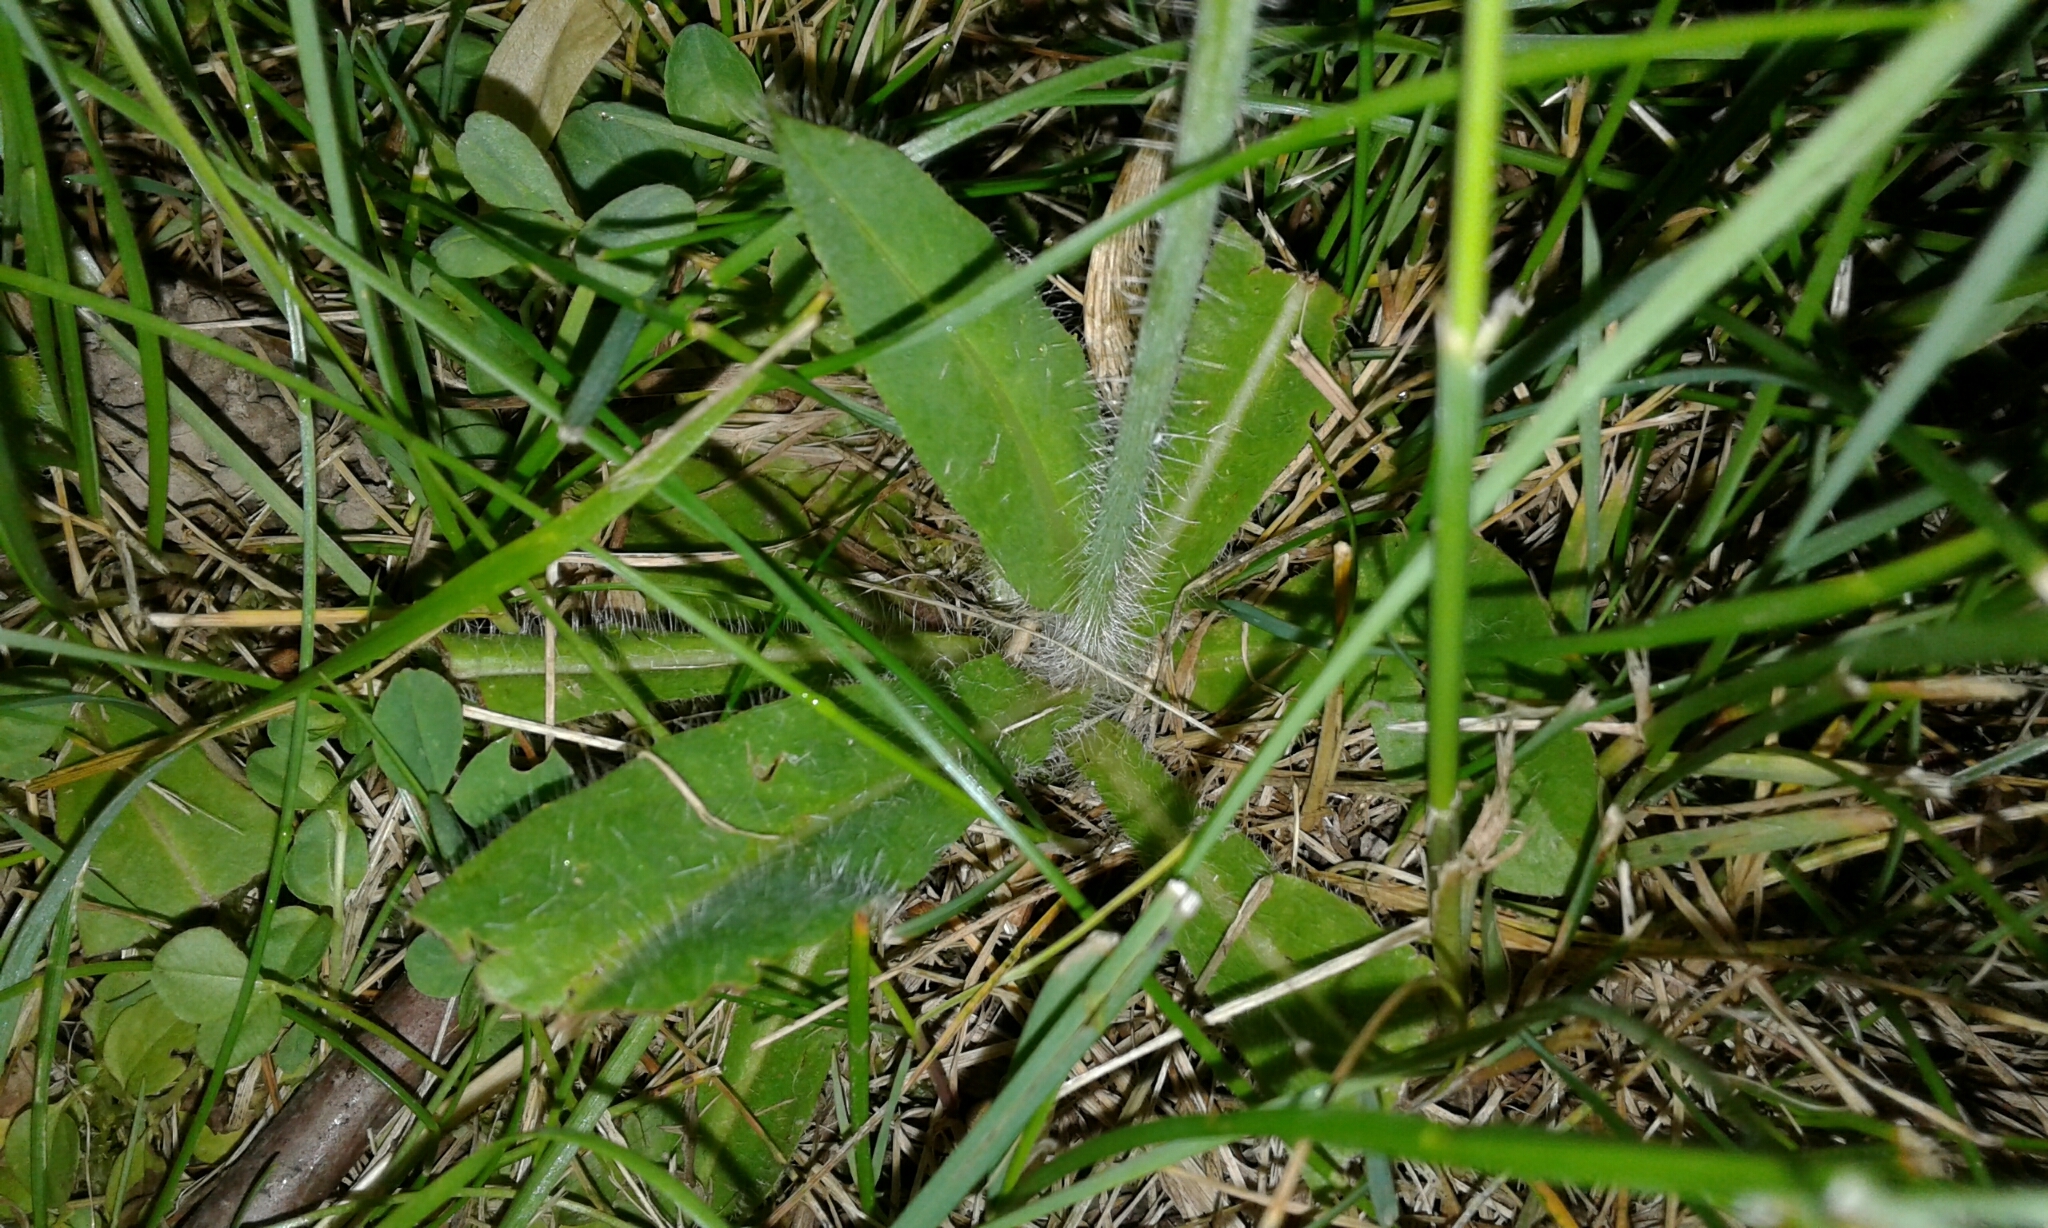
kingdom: Plantae
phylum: Tracheophyta
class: Magnoliopsida
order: Asterales
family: Asteraceae
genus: Pilosella
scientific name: Pilosella aurantiaca
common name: Fox-and-cubs
